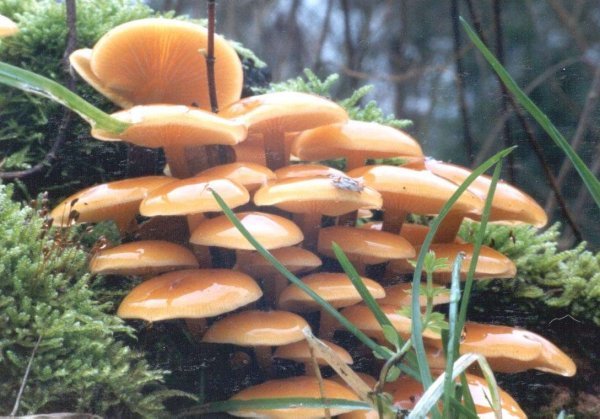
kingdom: Fungi
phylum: Basidiomycota
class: Agaricomycetes
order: Agaricales
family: Physalacriaceae
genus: Flammulina
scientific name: Flammulina velutipes
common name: Velvet shank
